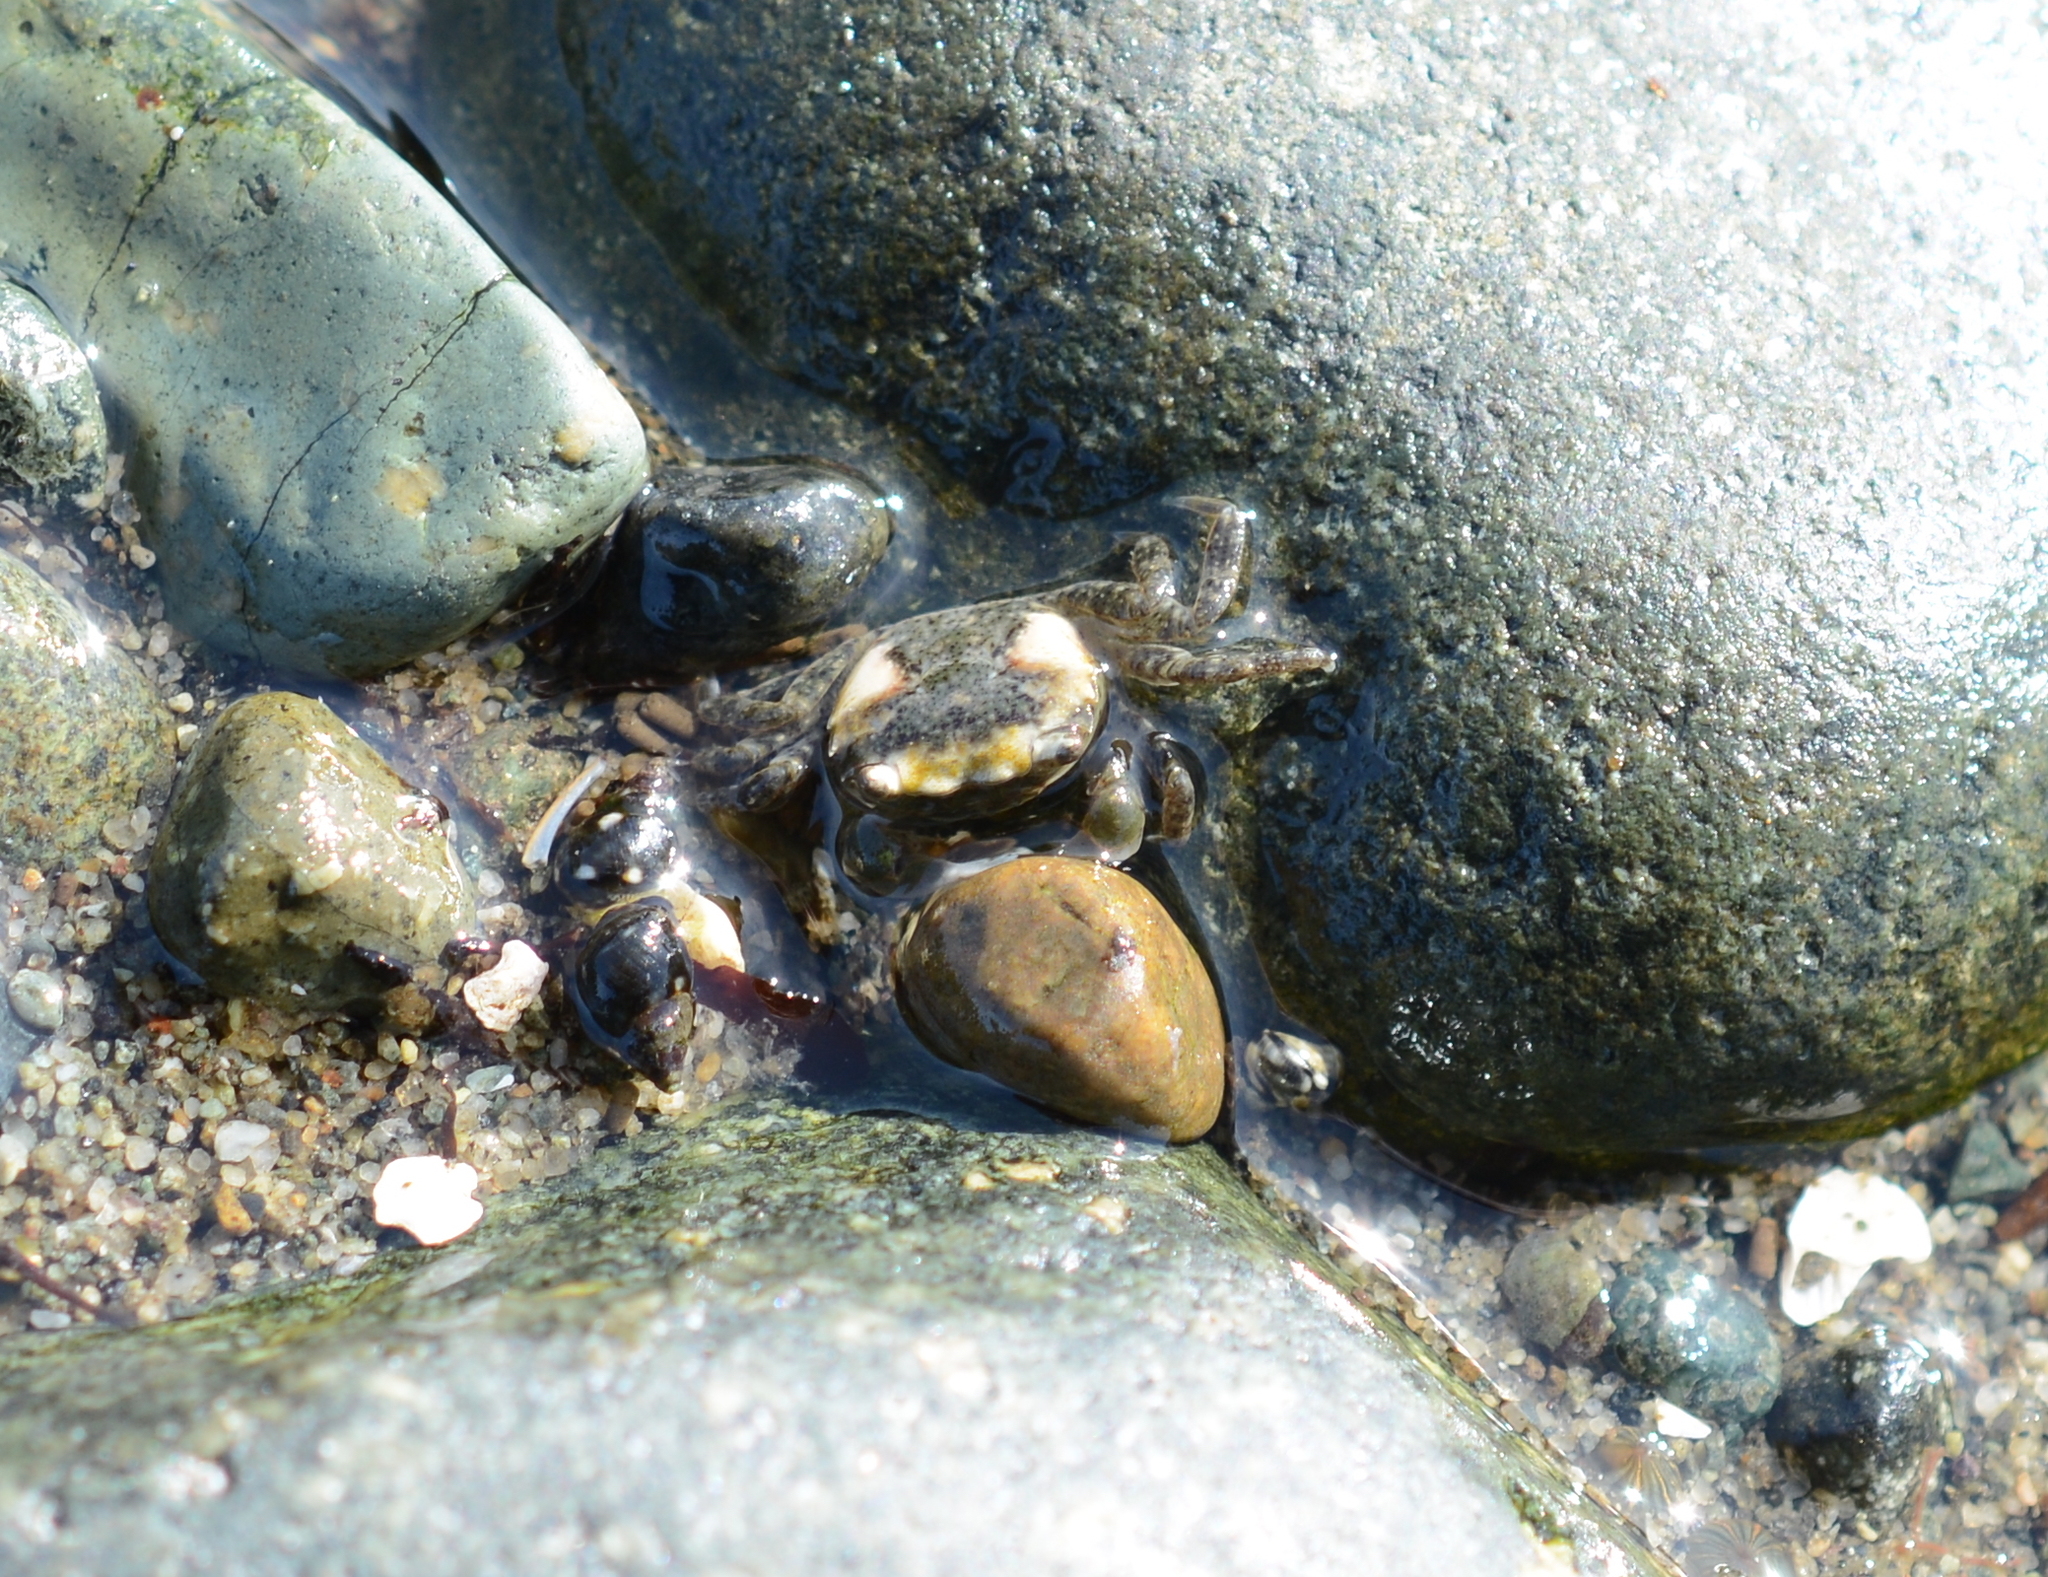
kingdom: Animalia
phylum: Arthropoda
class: Malacostraca
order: Decapoda
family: Varunidae
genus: Hemigrapsus
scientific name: Hemigrapsus oregonensis
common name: Yellow shore crab
